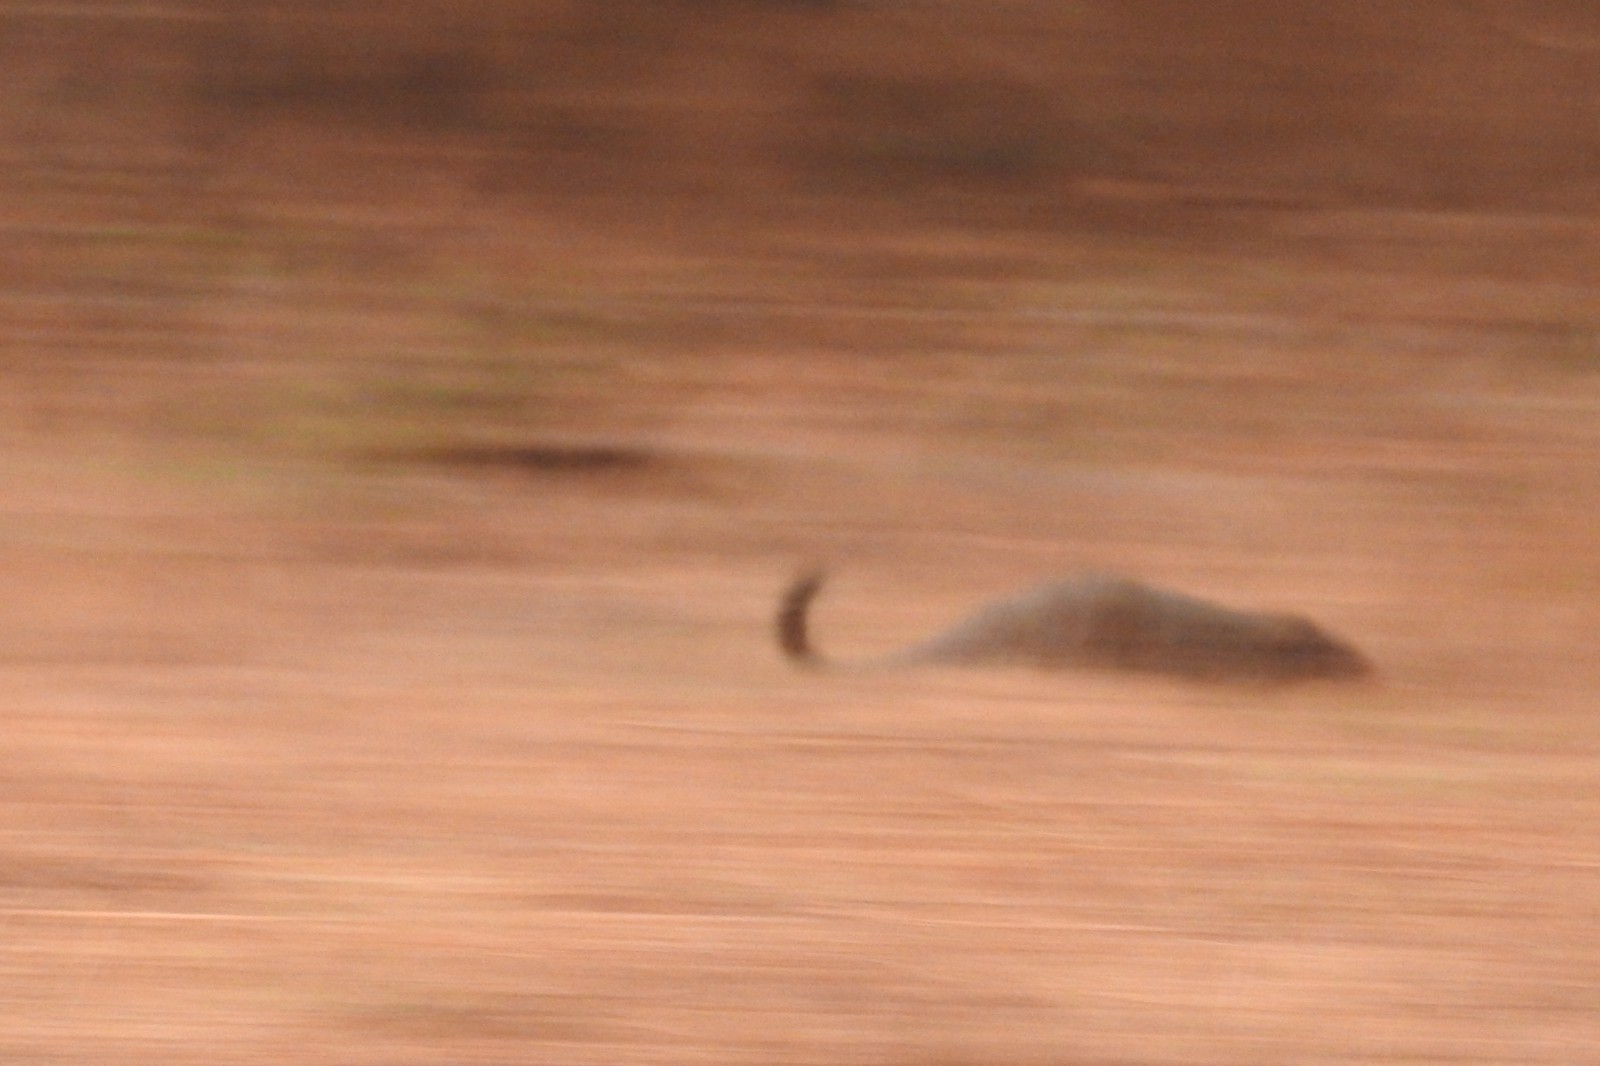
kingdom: Animalia
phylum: Chordata
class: Mammalia
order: Carnivora
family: Herpestidae
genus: Herpestes
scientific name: Herpestes smithii
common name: Ruddy mongoose
